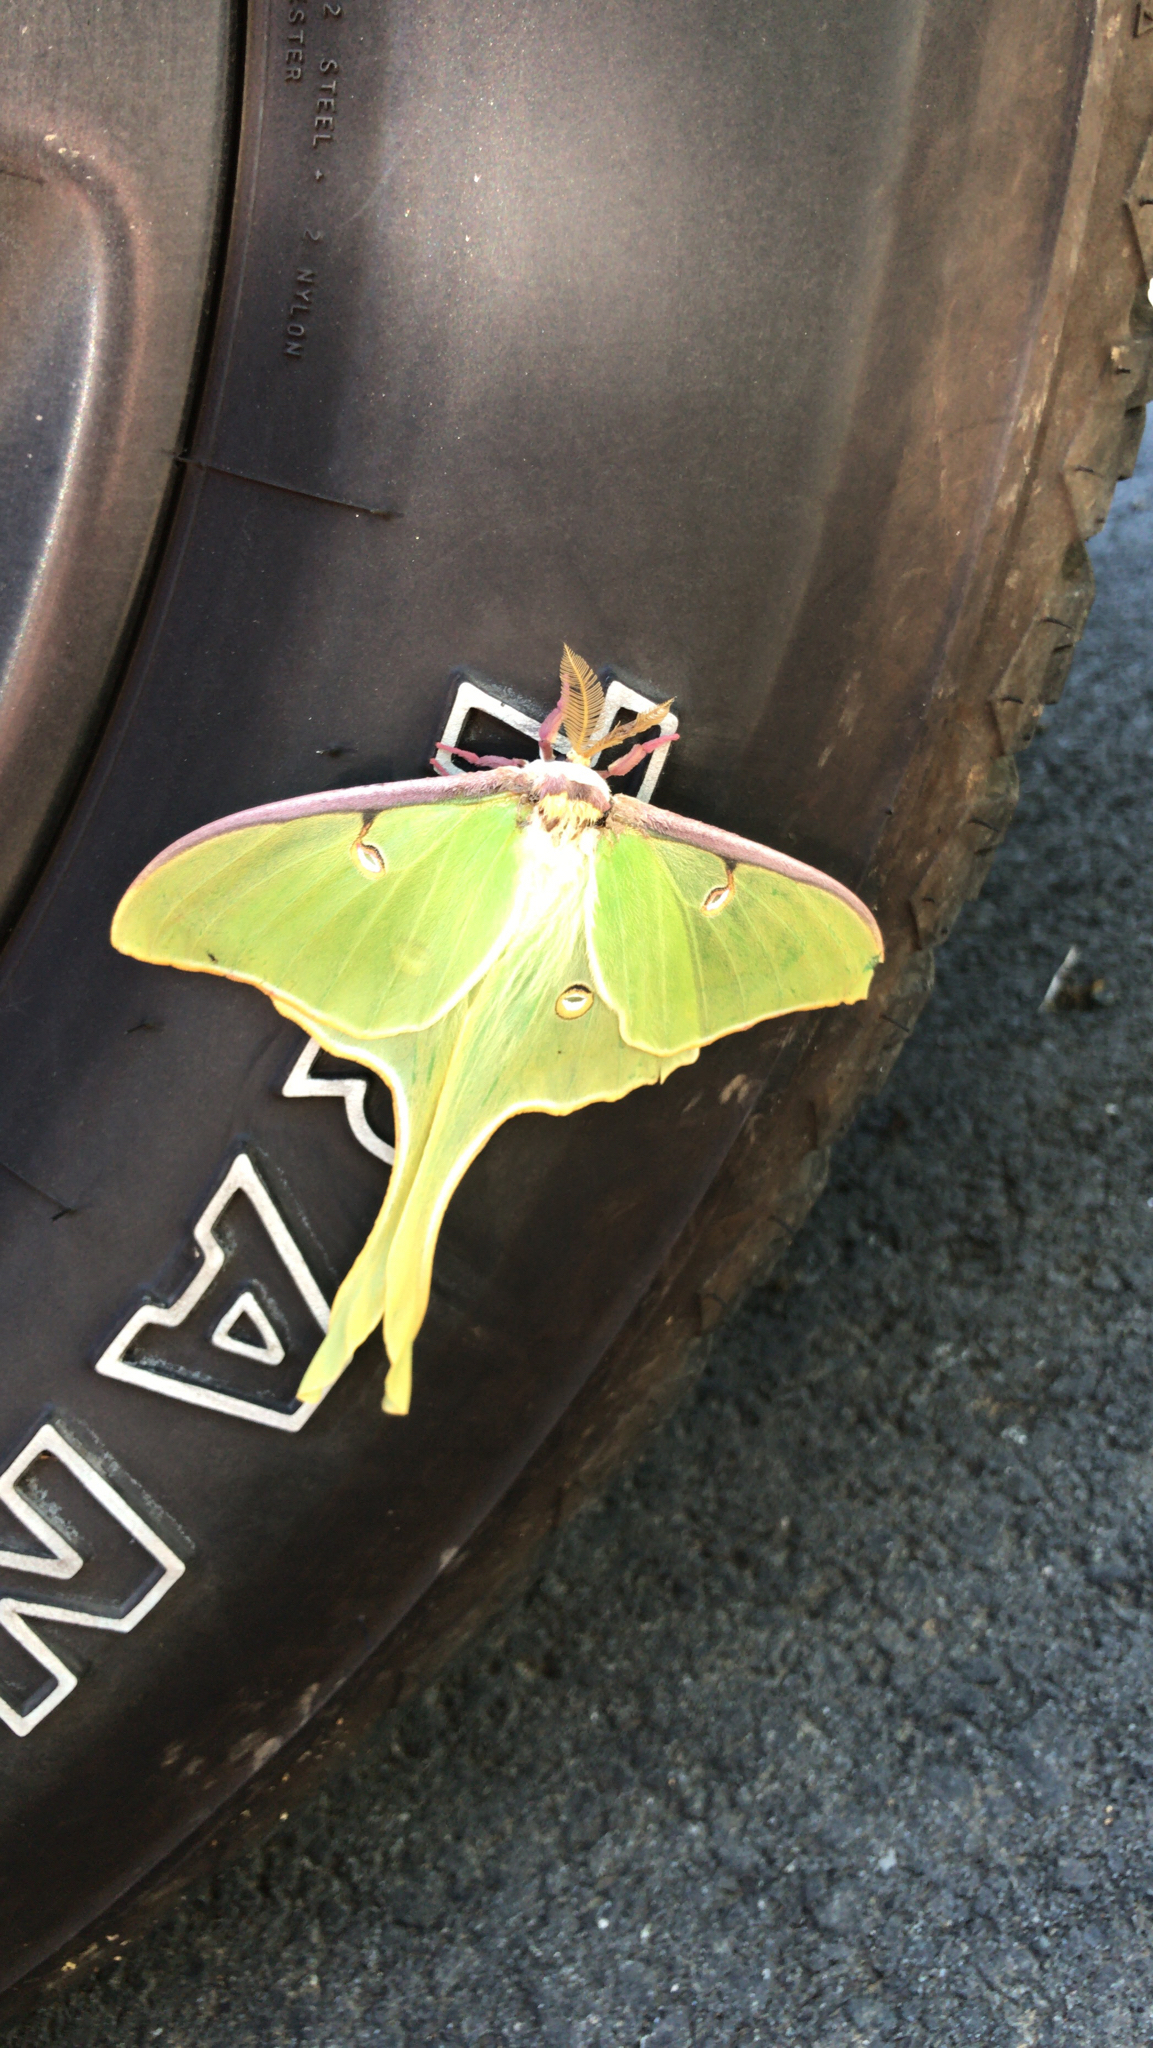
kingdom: Animalia
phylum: Arthropoda
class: Insecta
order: Lepidoptera
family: Saturniidae
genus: Actias
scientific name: Actias luna
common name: Luna moth
